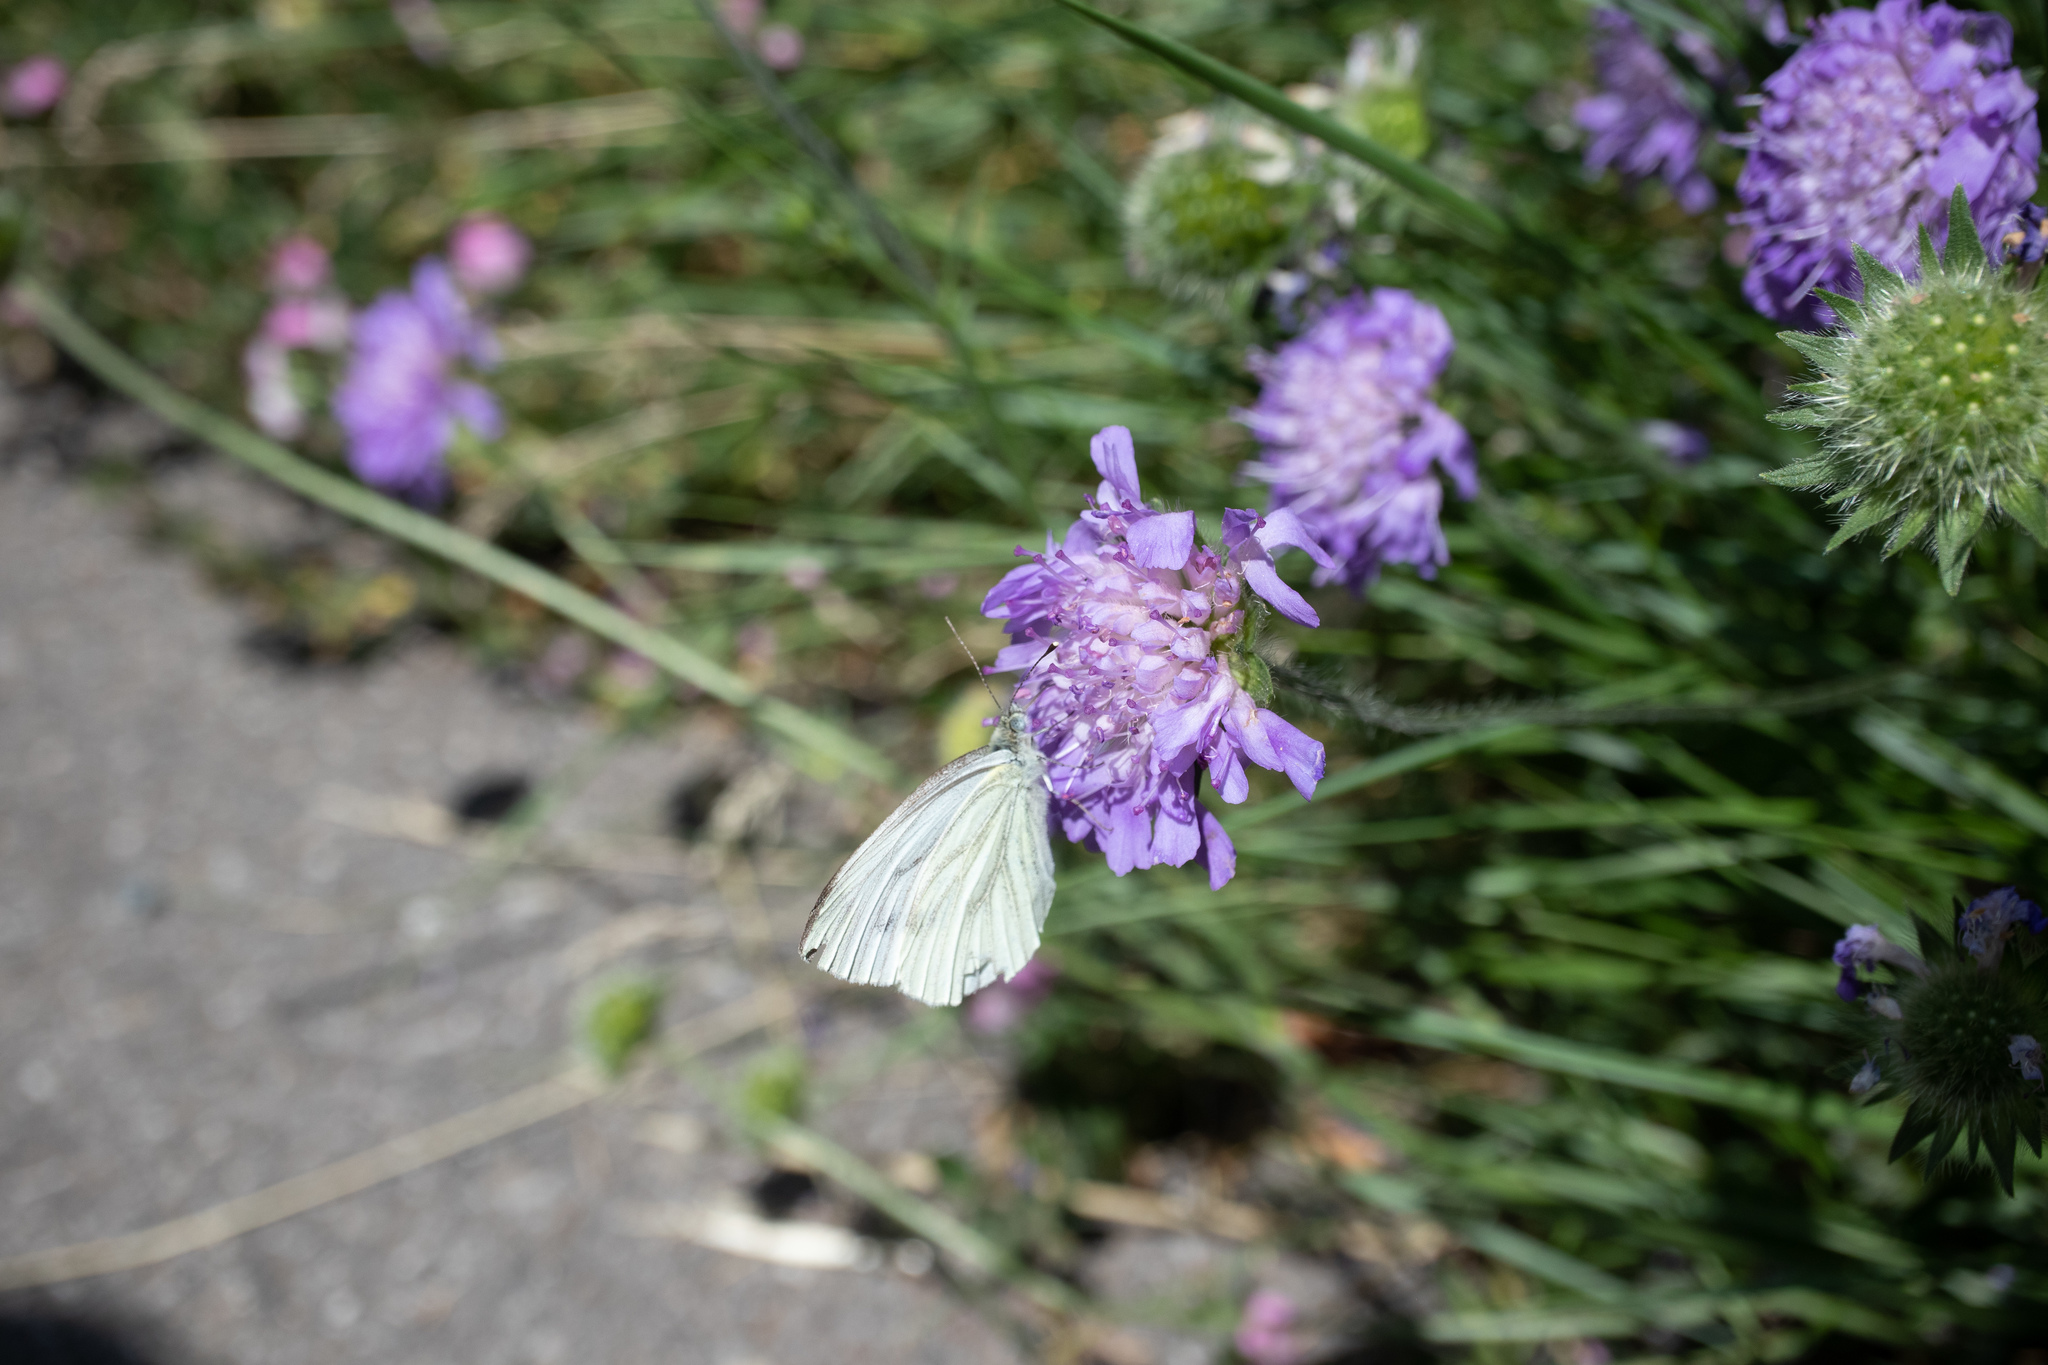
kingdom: Animalia
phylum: Arthropoda
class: Insecta
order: Lepidoptera
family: Pieridae
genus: Pieris
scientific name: Pieris napi
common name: Green-veined white
